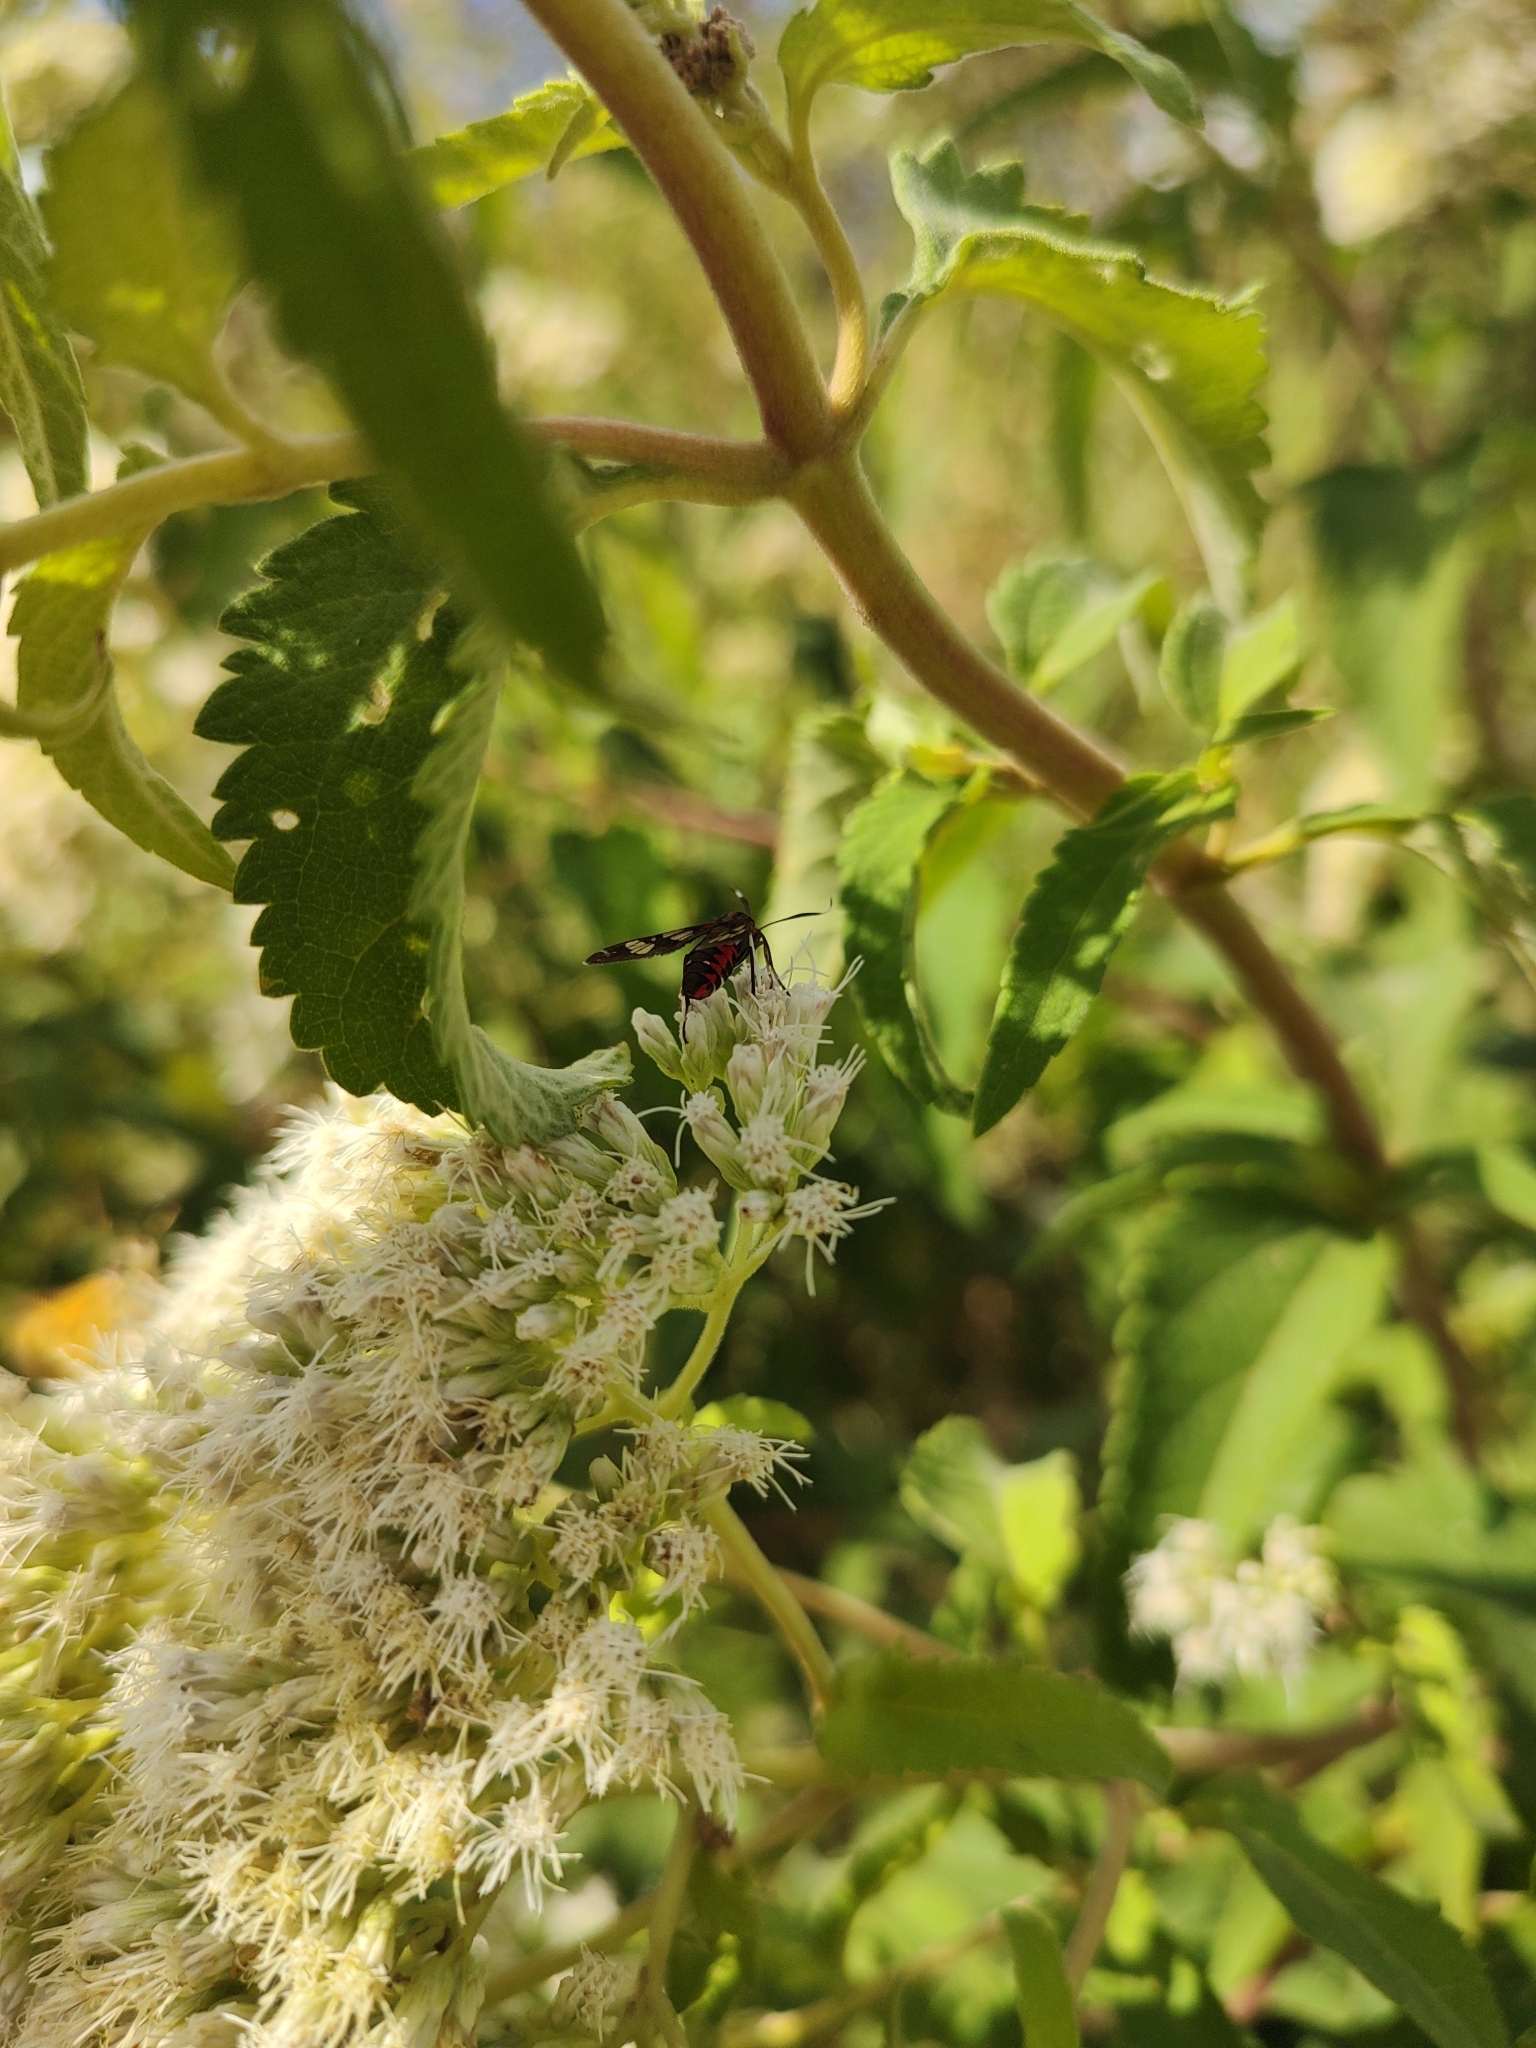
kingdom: Animalia
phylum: Arthropoda
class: Insecta
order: Lepidoptera
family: Erebidae
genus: Phoenicoprocta
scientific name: Phoenicoprocta teda
